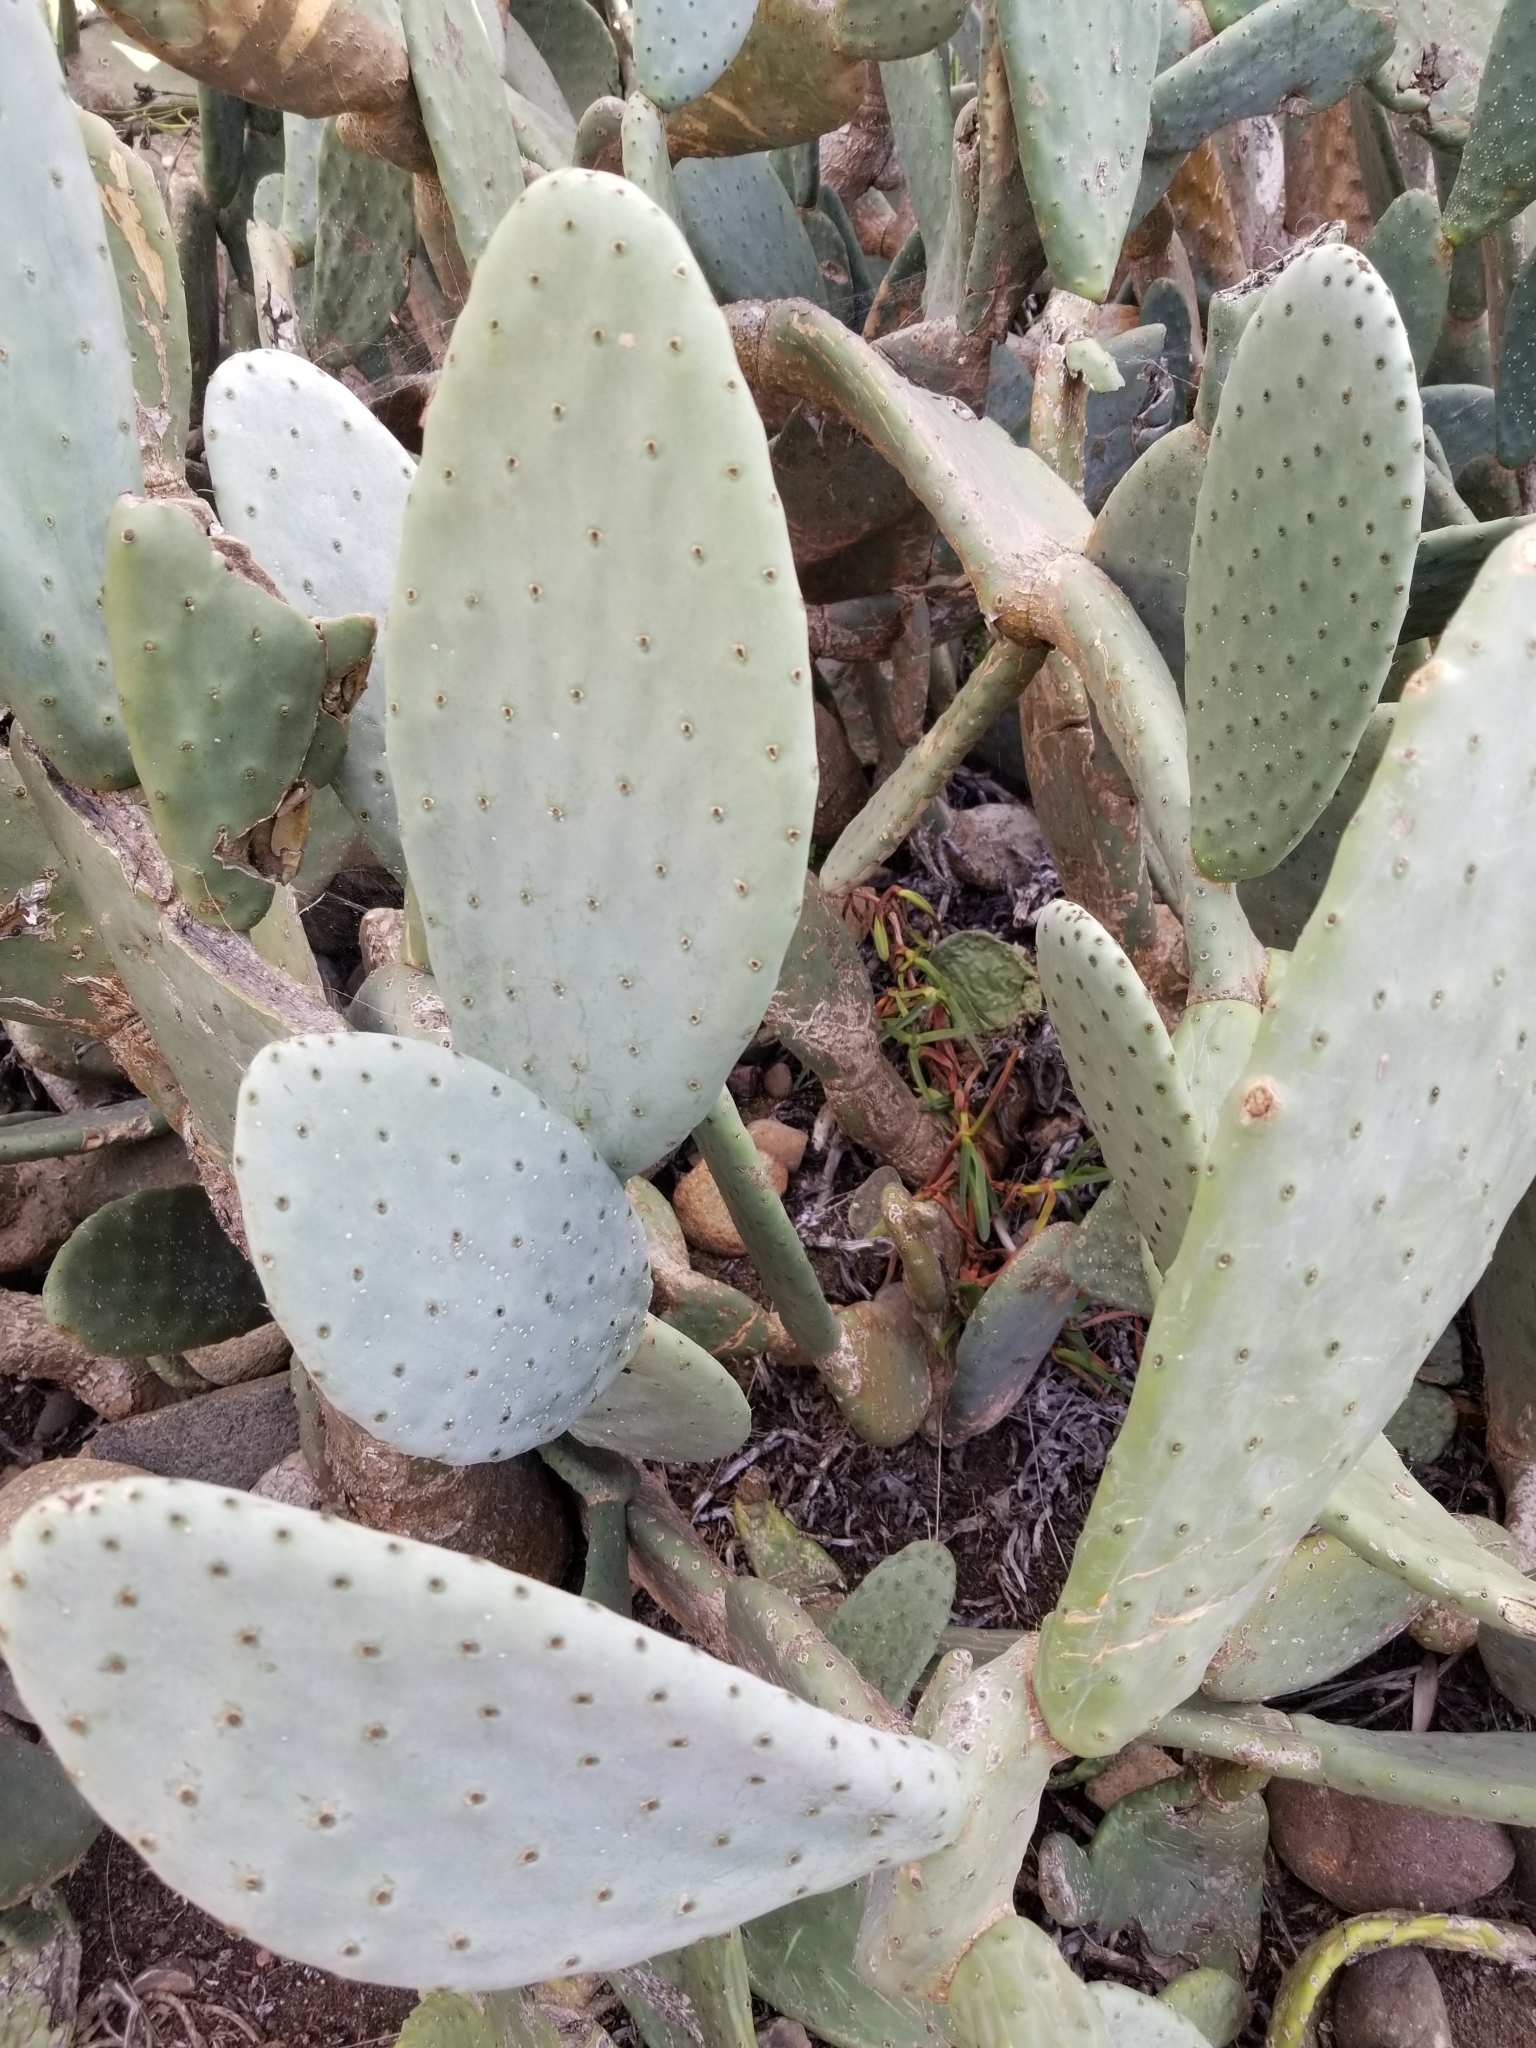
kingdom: Plantae
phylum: Tracheophyta
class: Magnoliopsida
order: Caryophyllales
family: Cactaceae
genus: Opuntia
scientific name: Opuntia ficus-indica
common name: Barbary fig
